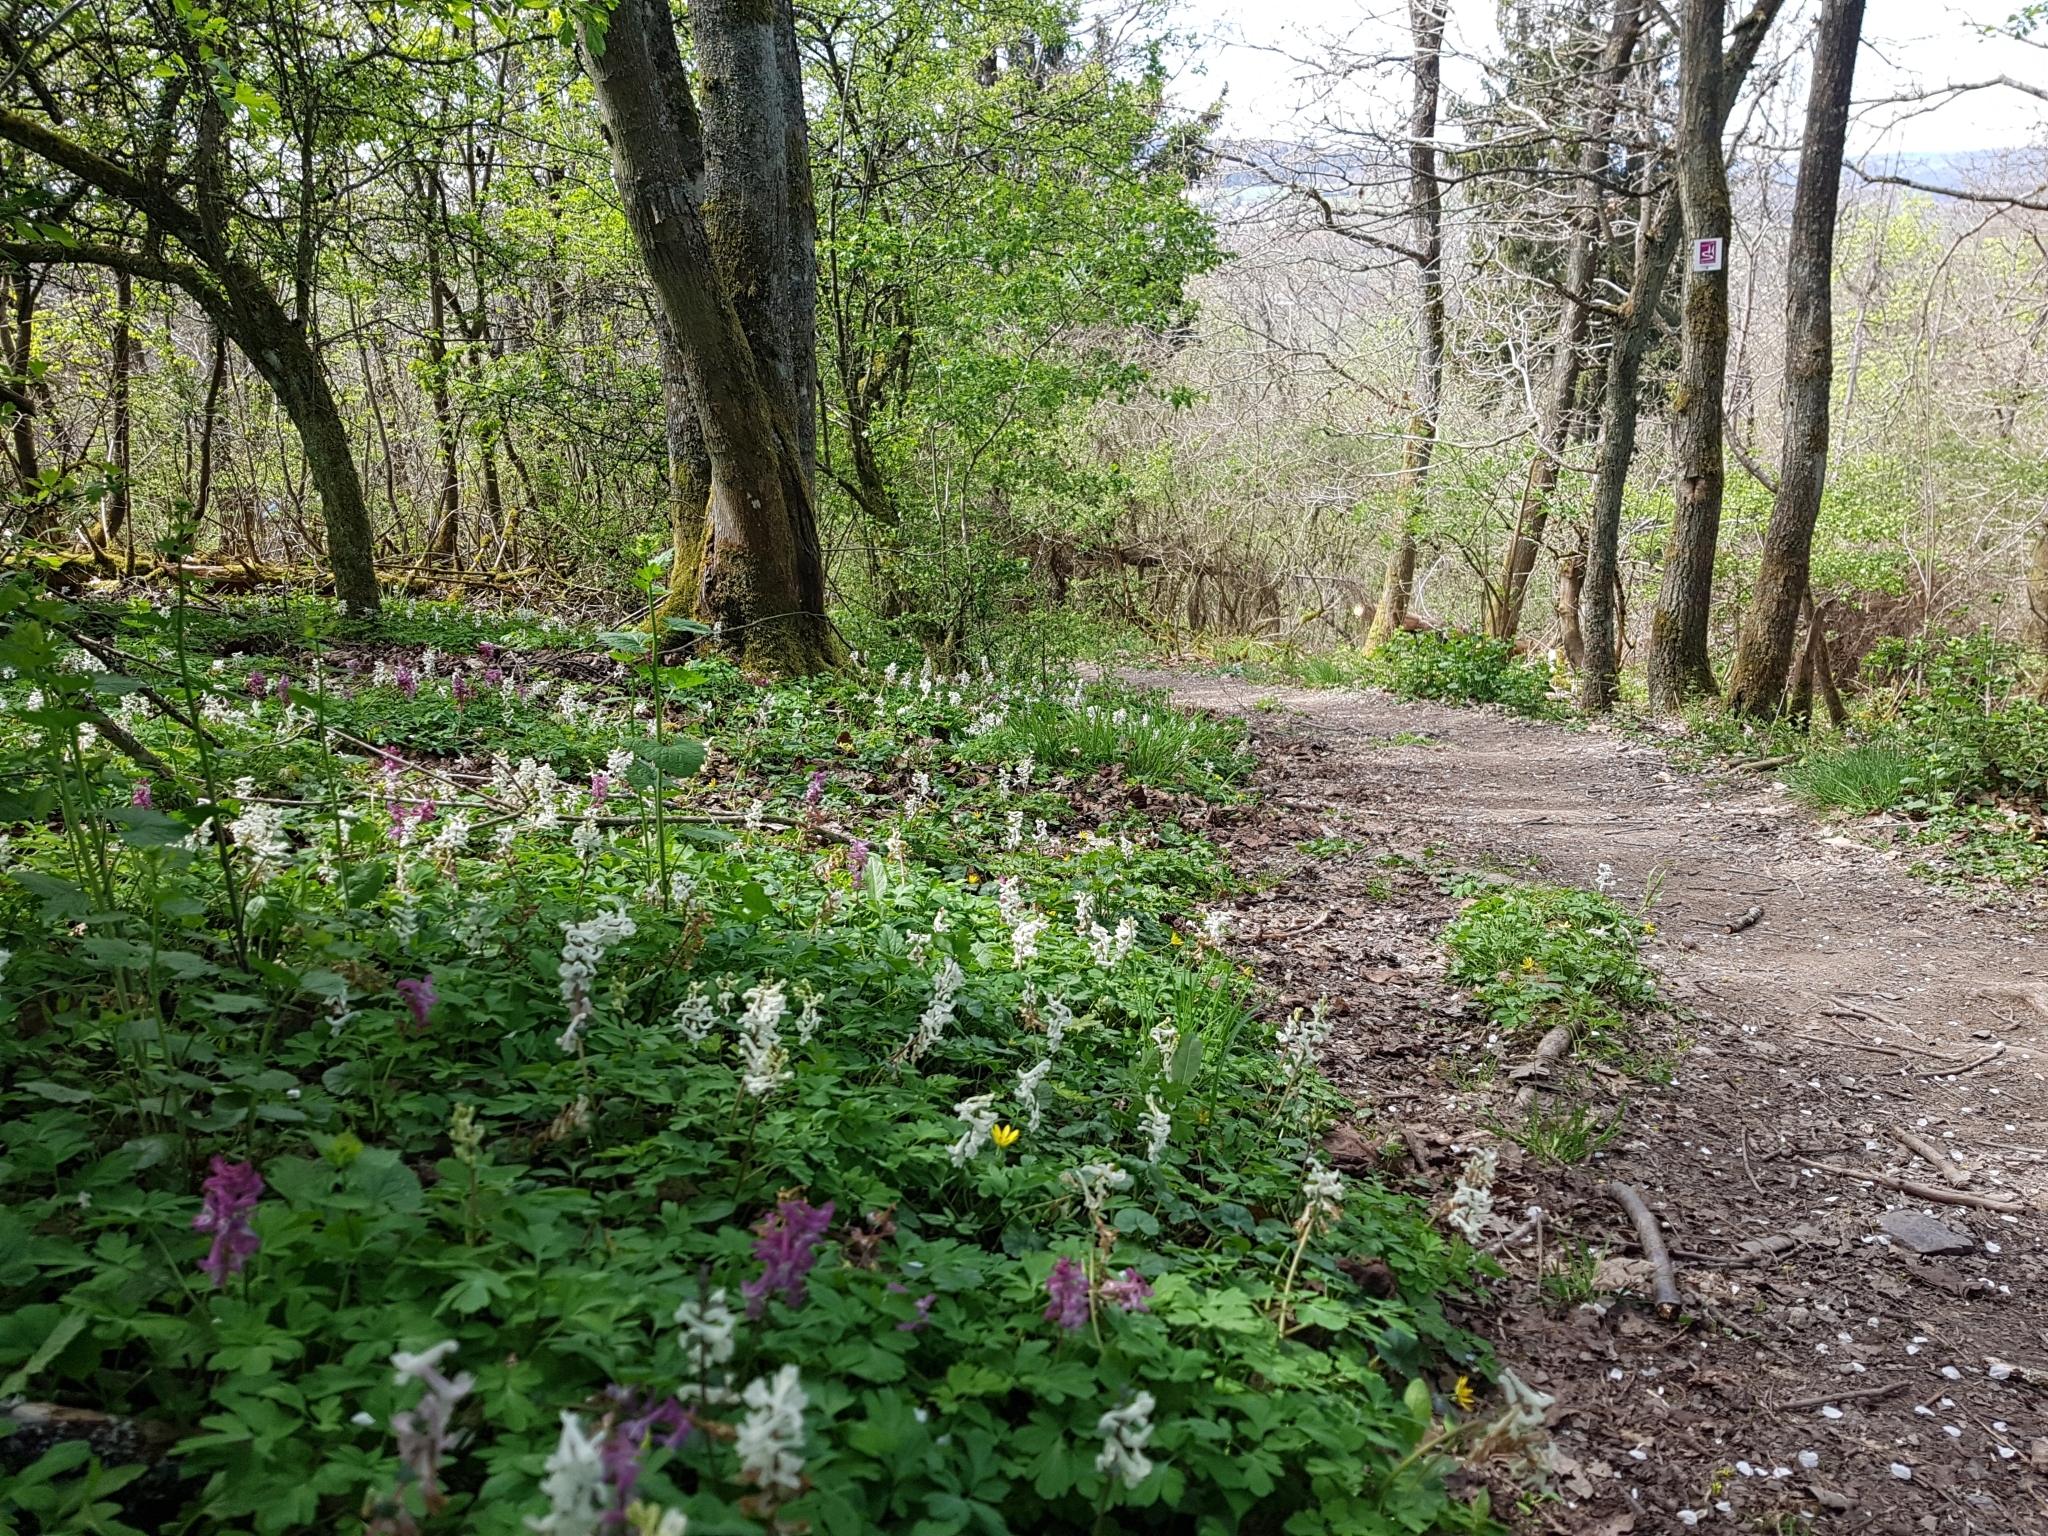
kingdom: Plantae
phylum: Tracheophyta
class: Magnoliopsida
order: Ranunculales
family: Papaveraceae
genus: Corydalis
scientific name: Corydalis cava
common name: Hollowroot
